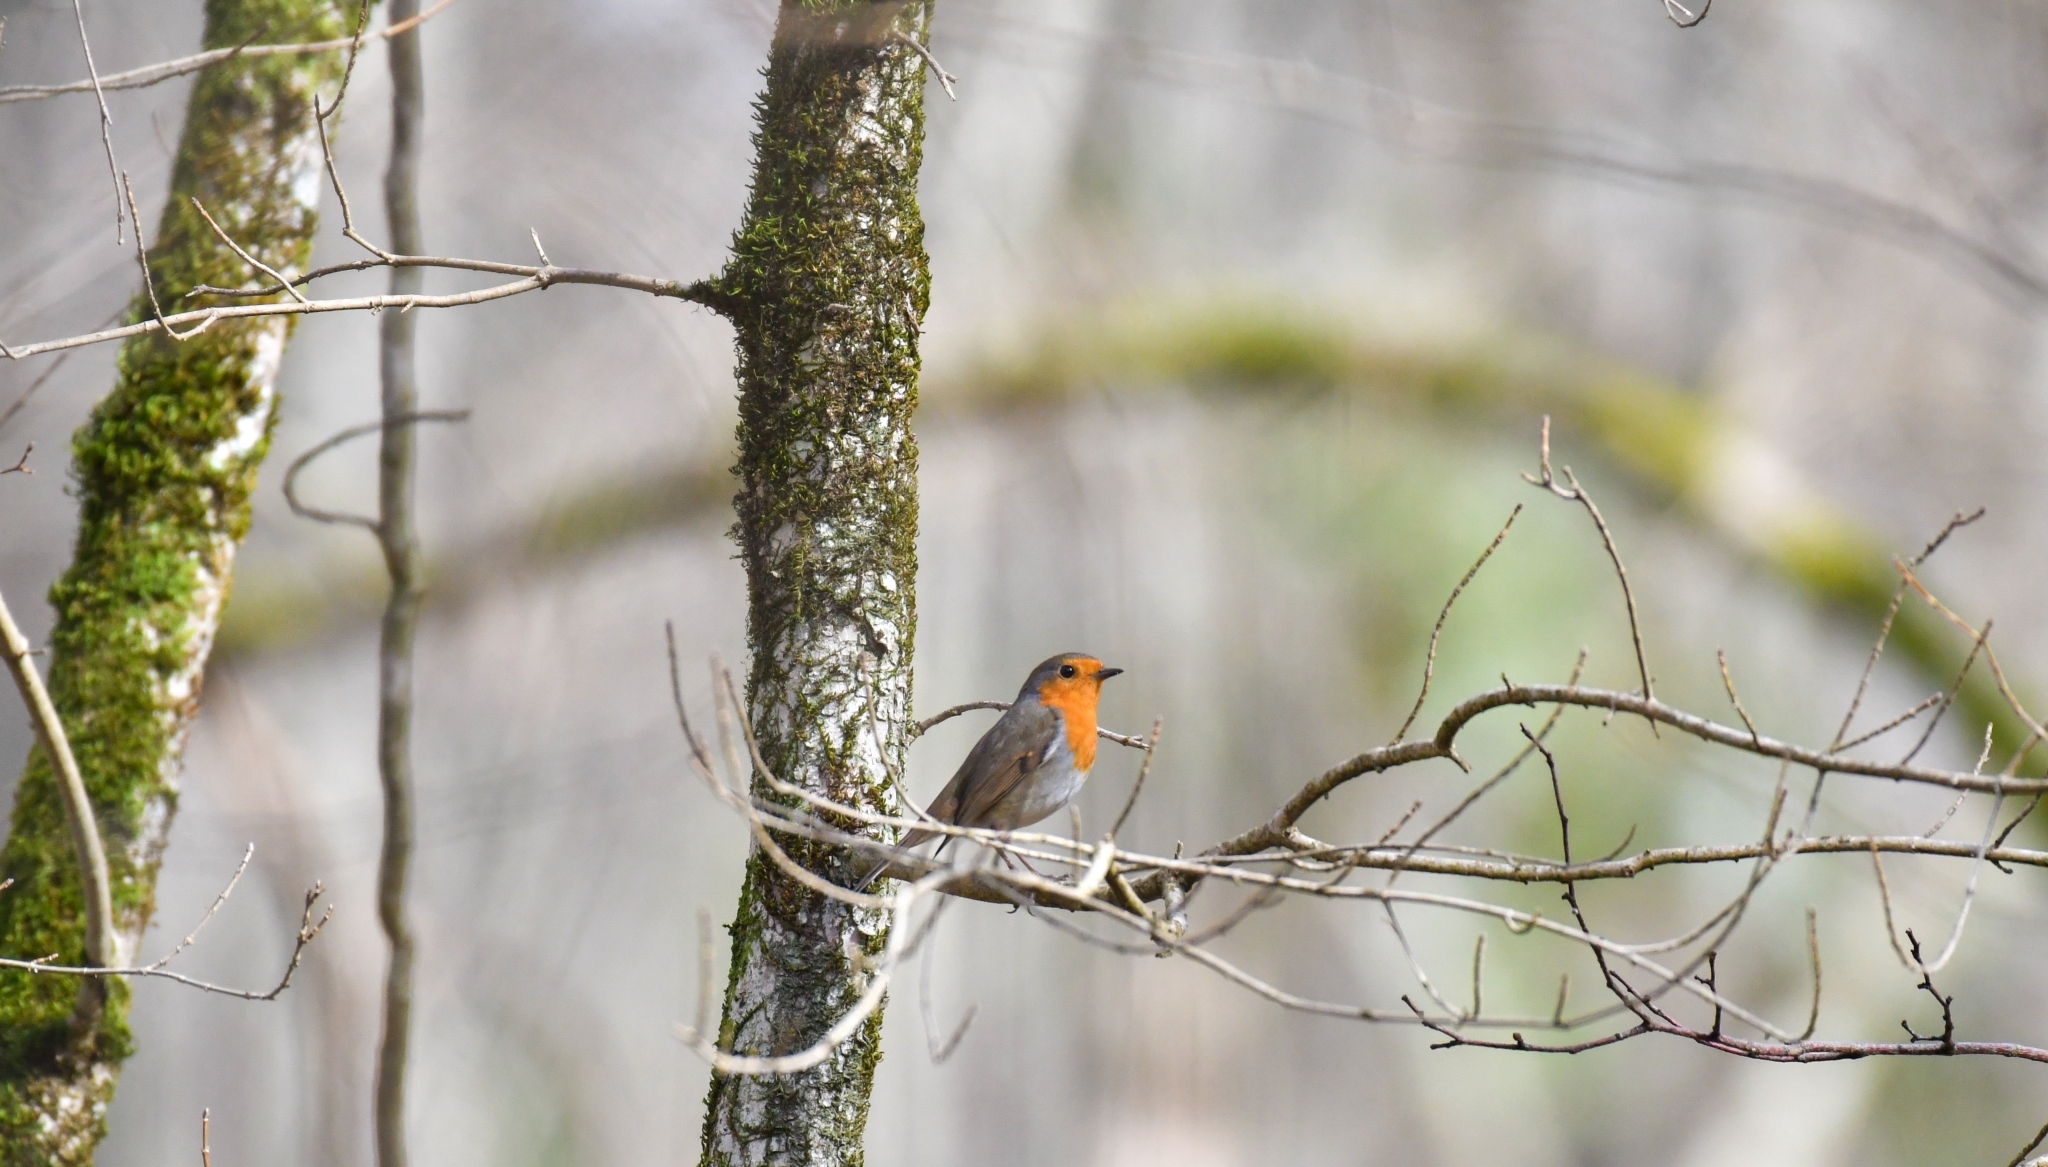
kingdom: Animalia
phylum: Chordata
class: Aves
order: Passeriformes
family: Muscicapidae
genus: Erithacus
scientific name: Erithacus rubecula
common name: European robin
